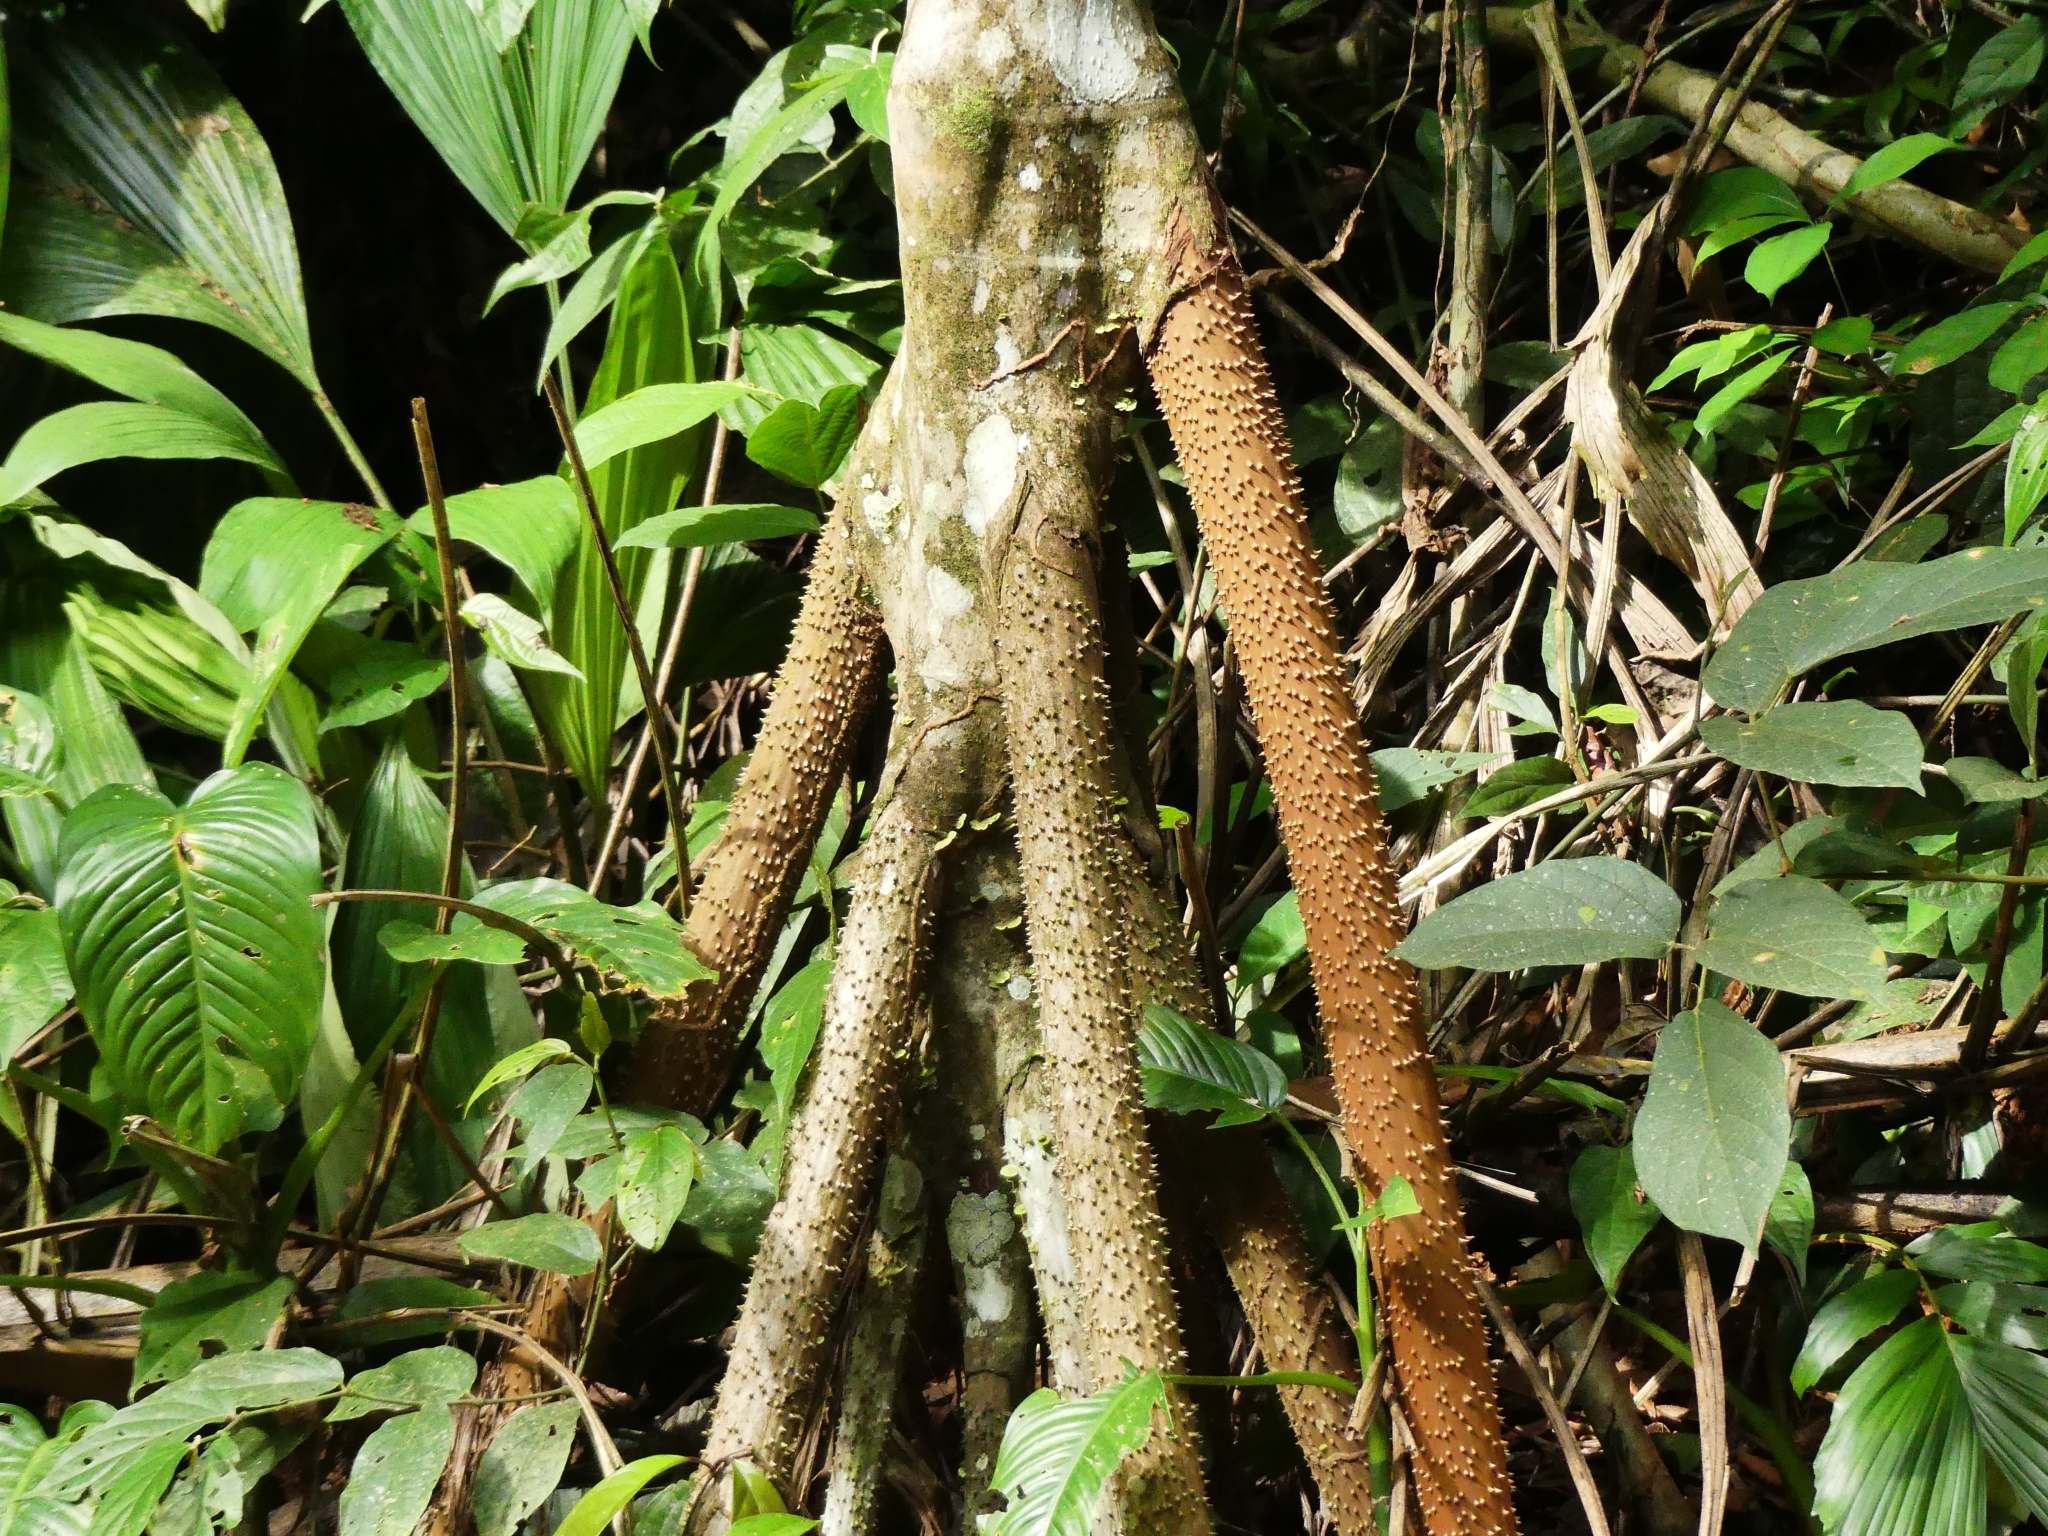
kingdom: Plantae
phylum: Tracheophyta
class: Liliopsida
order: Arecales
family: Arecaceae
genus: Socratea
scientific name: Socratea exorrhiza
